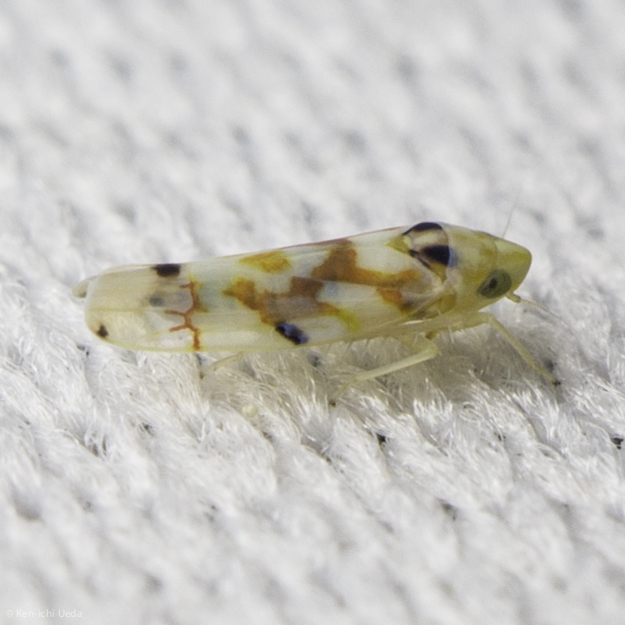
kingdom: Animalia
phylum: Arthropoda
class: Insecta
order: Hemiptera
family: Cicadellidae
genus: Erythroneura
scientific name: Erythroneura elegantula
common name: Western grape leafhopper
